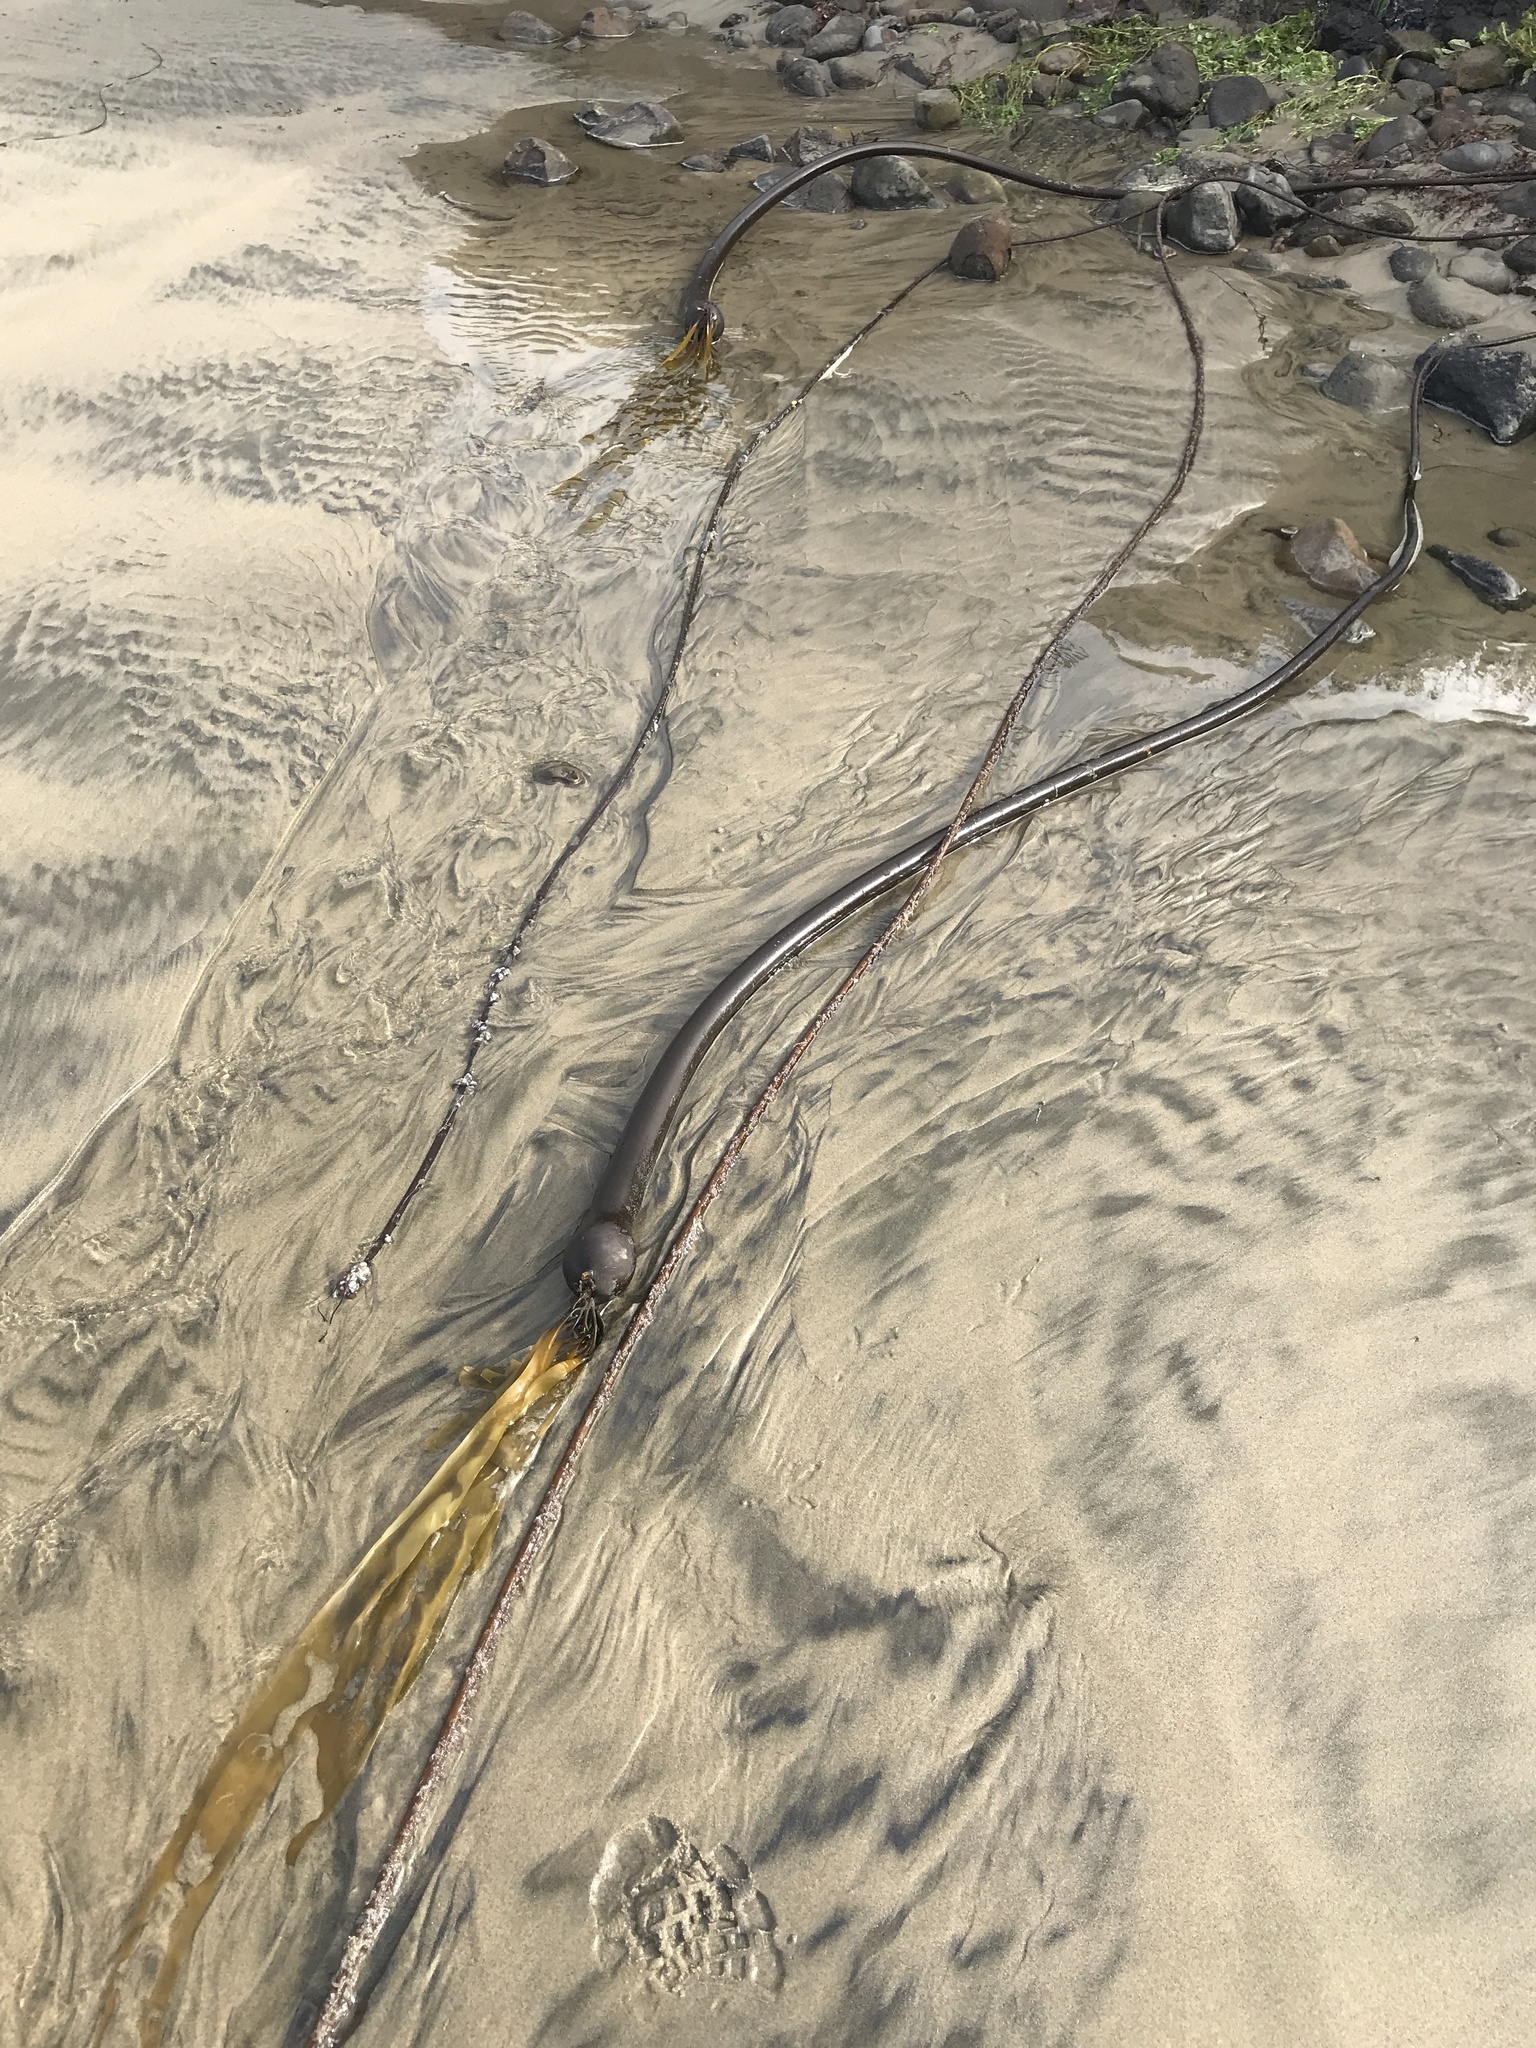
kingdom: Chromista
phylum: Ochrophyta
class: Phaeophyceae
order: Laminariales
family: Laminariaceae
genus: Nereocystis
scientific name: Nereocystis luetkeana
